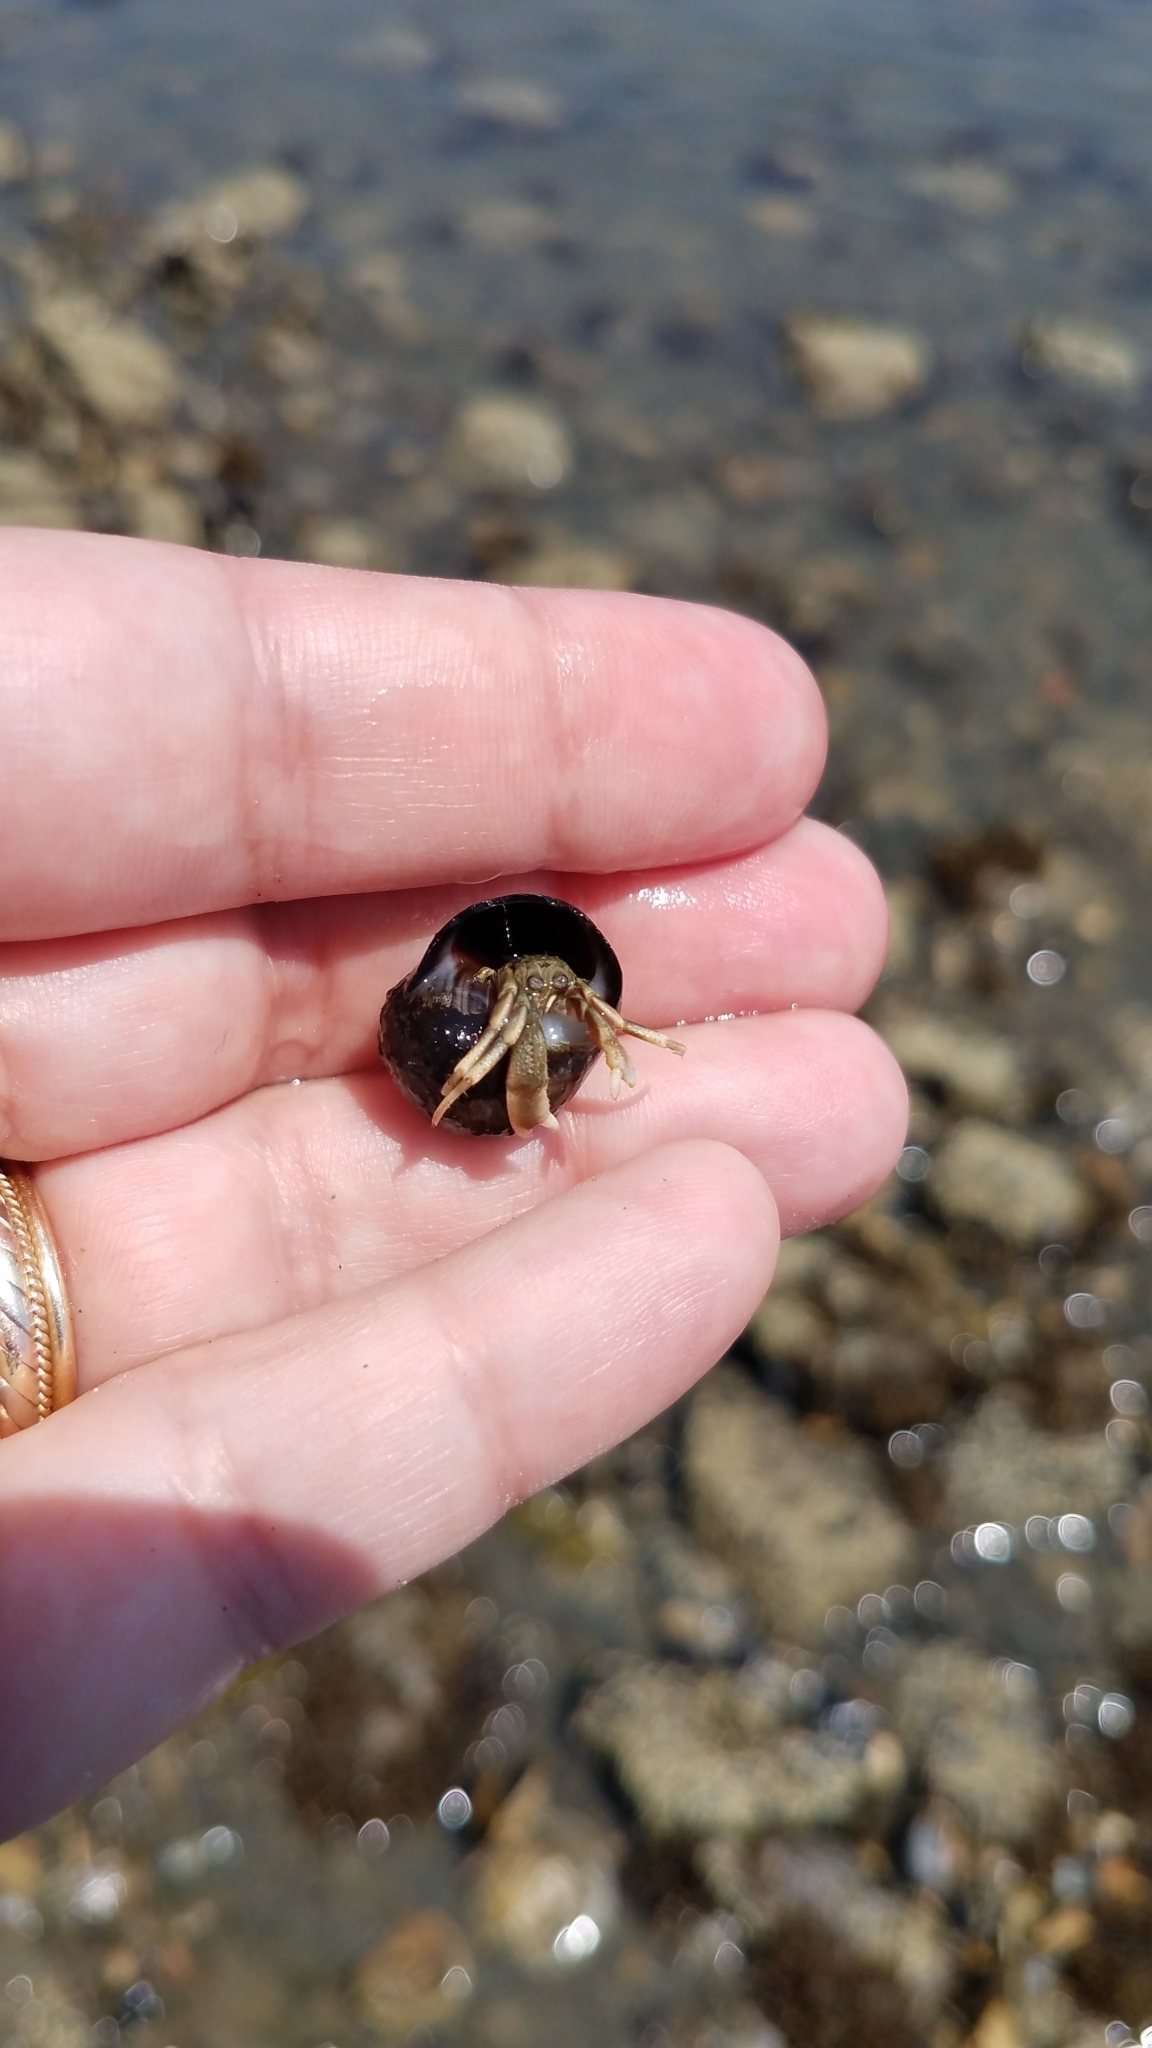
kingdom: Animalia
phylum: Arthropoda
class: Malacostraca
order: Decapoda
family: Paguridae
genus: Pagurus
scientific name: Pagurus longicarpus
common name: Long-armed hermit crab
